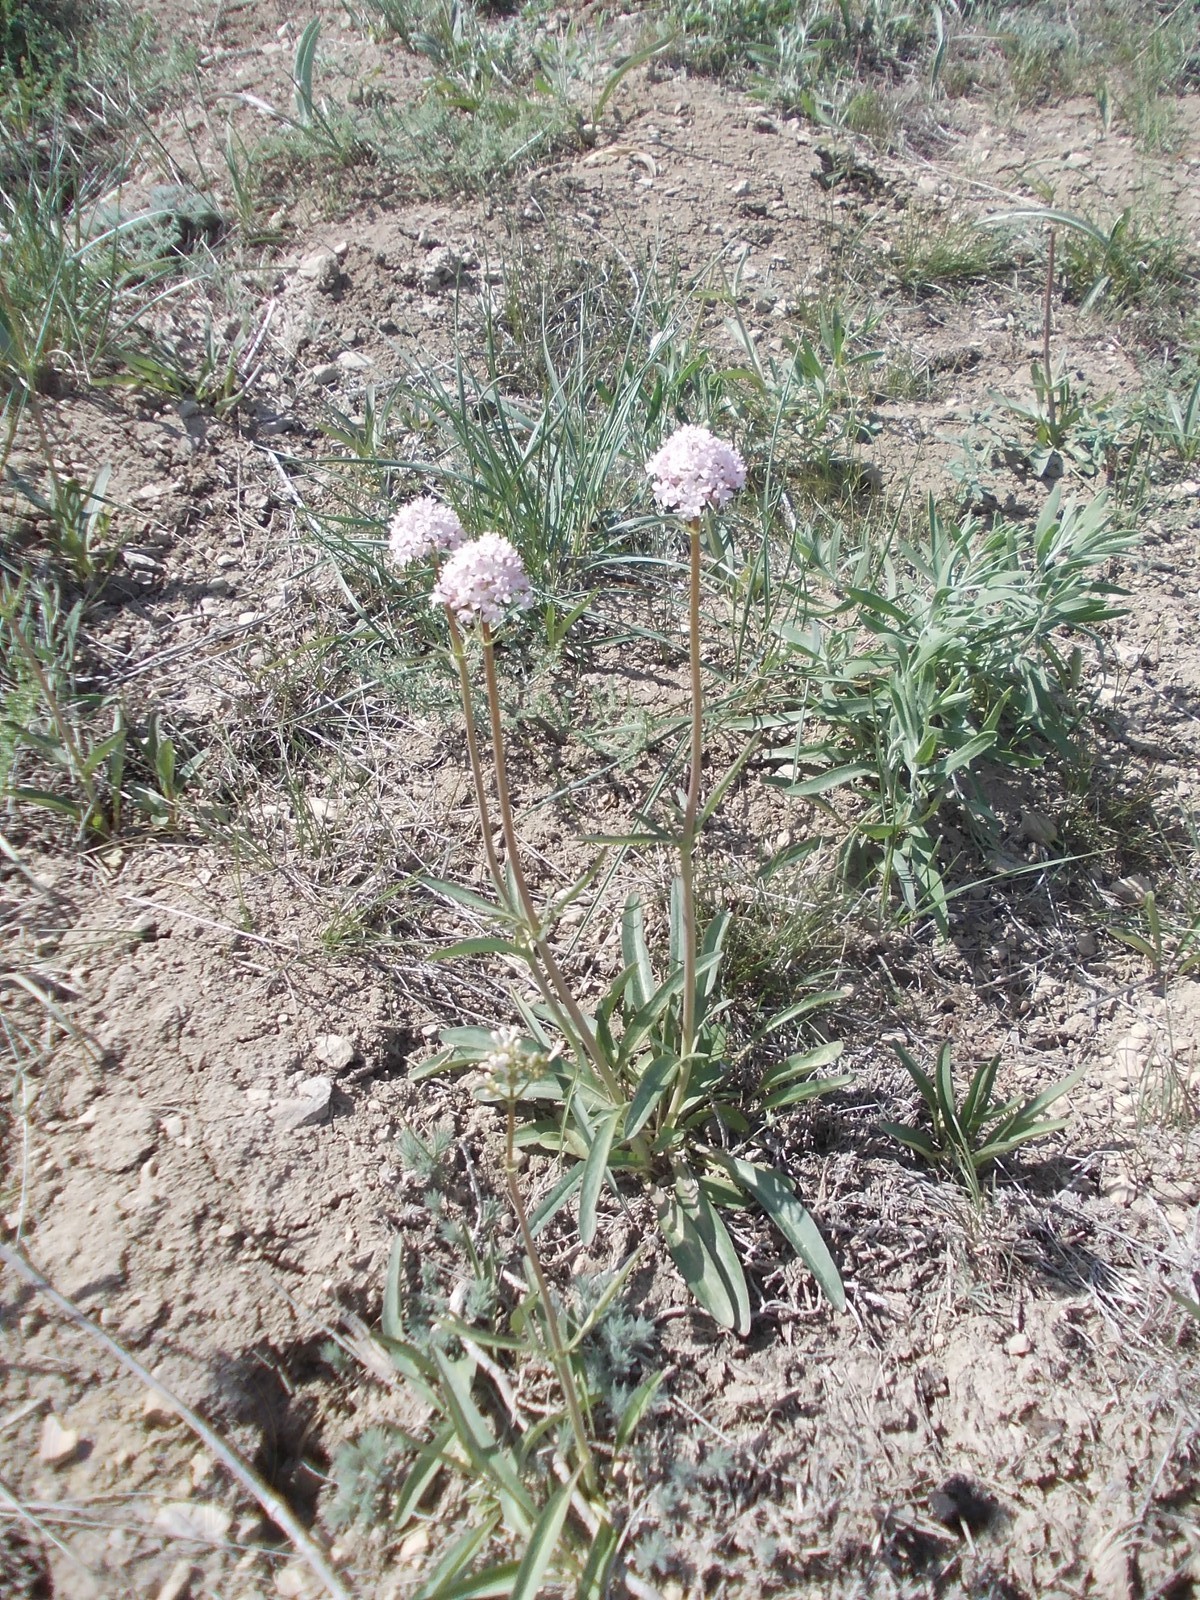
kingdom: Plantae
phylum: Tracheophyta
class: Magnoliopsida
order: Dipsacales
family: Caprifoliaceae
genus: Valeriana
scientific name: Valeriana tuberosa
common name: Tuberous valerian
